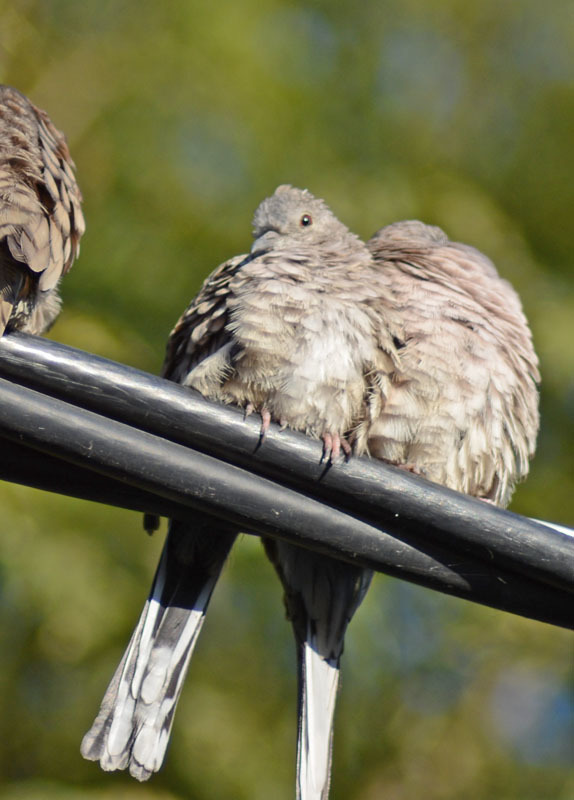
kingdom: Animalia
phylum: Chordata
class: Aves
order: Columbiformes
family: Columbidae
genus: Columbina
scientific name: Columbina inca
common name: Inca dove
